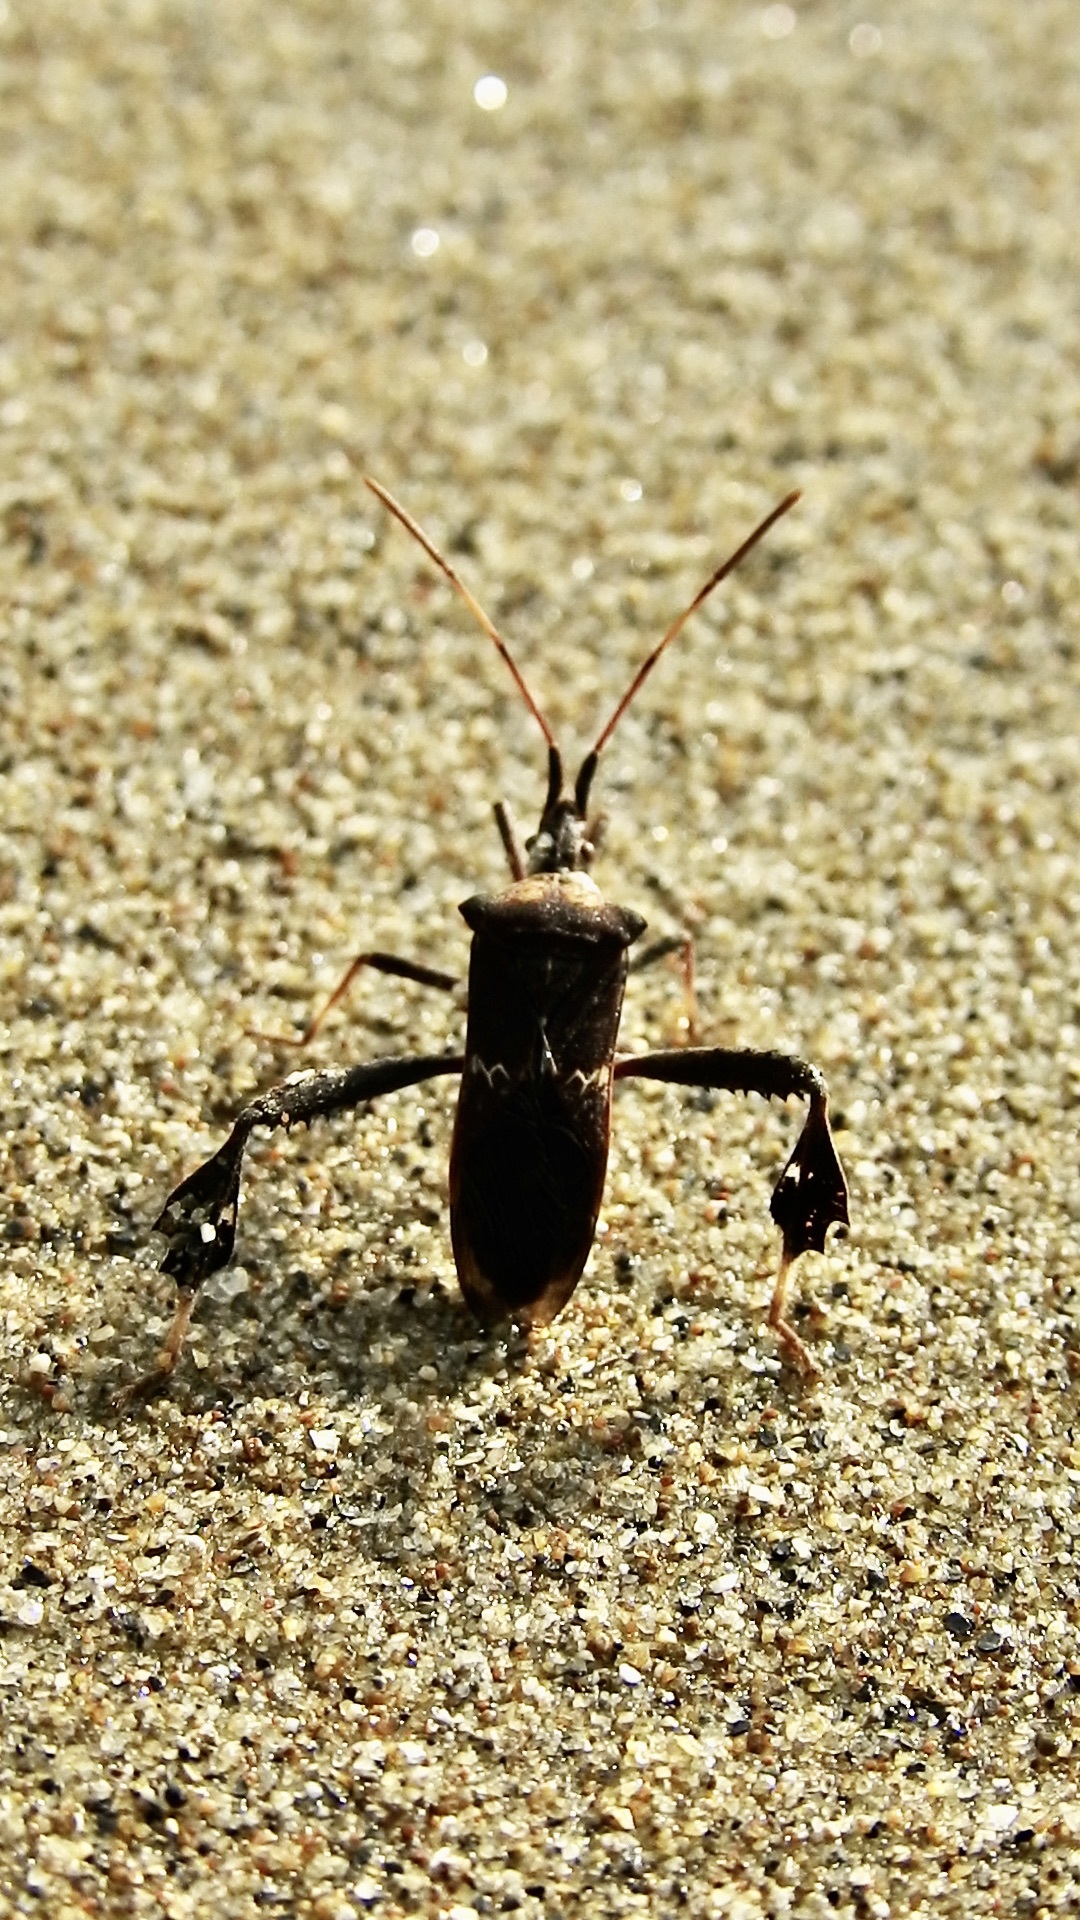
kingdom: Animalia
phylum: Arthropoda
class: Insecta
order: Hemiptera
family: Coreidae
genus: Leptoglossus
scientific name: Leptoglossus zonatus
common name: Large-legged bug
